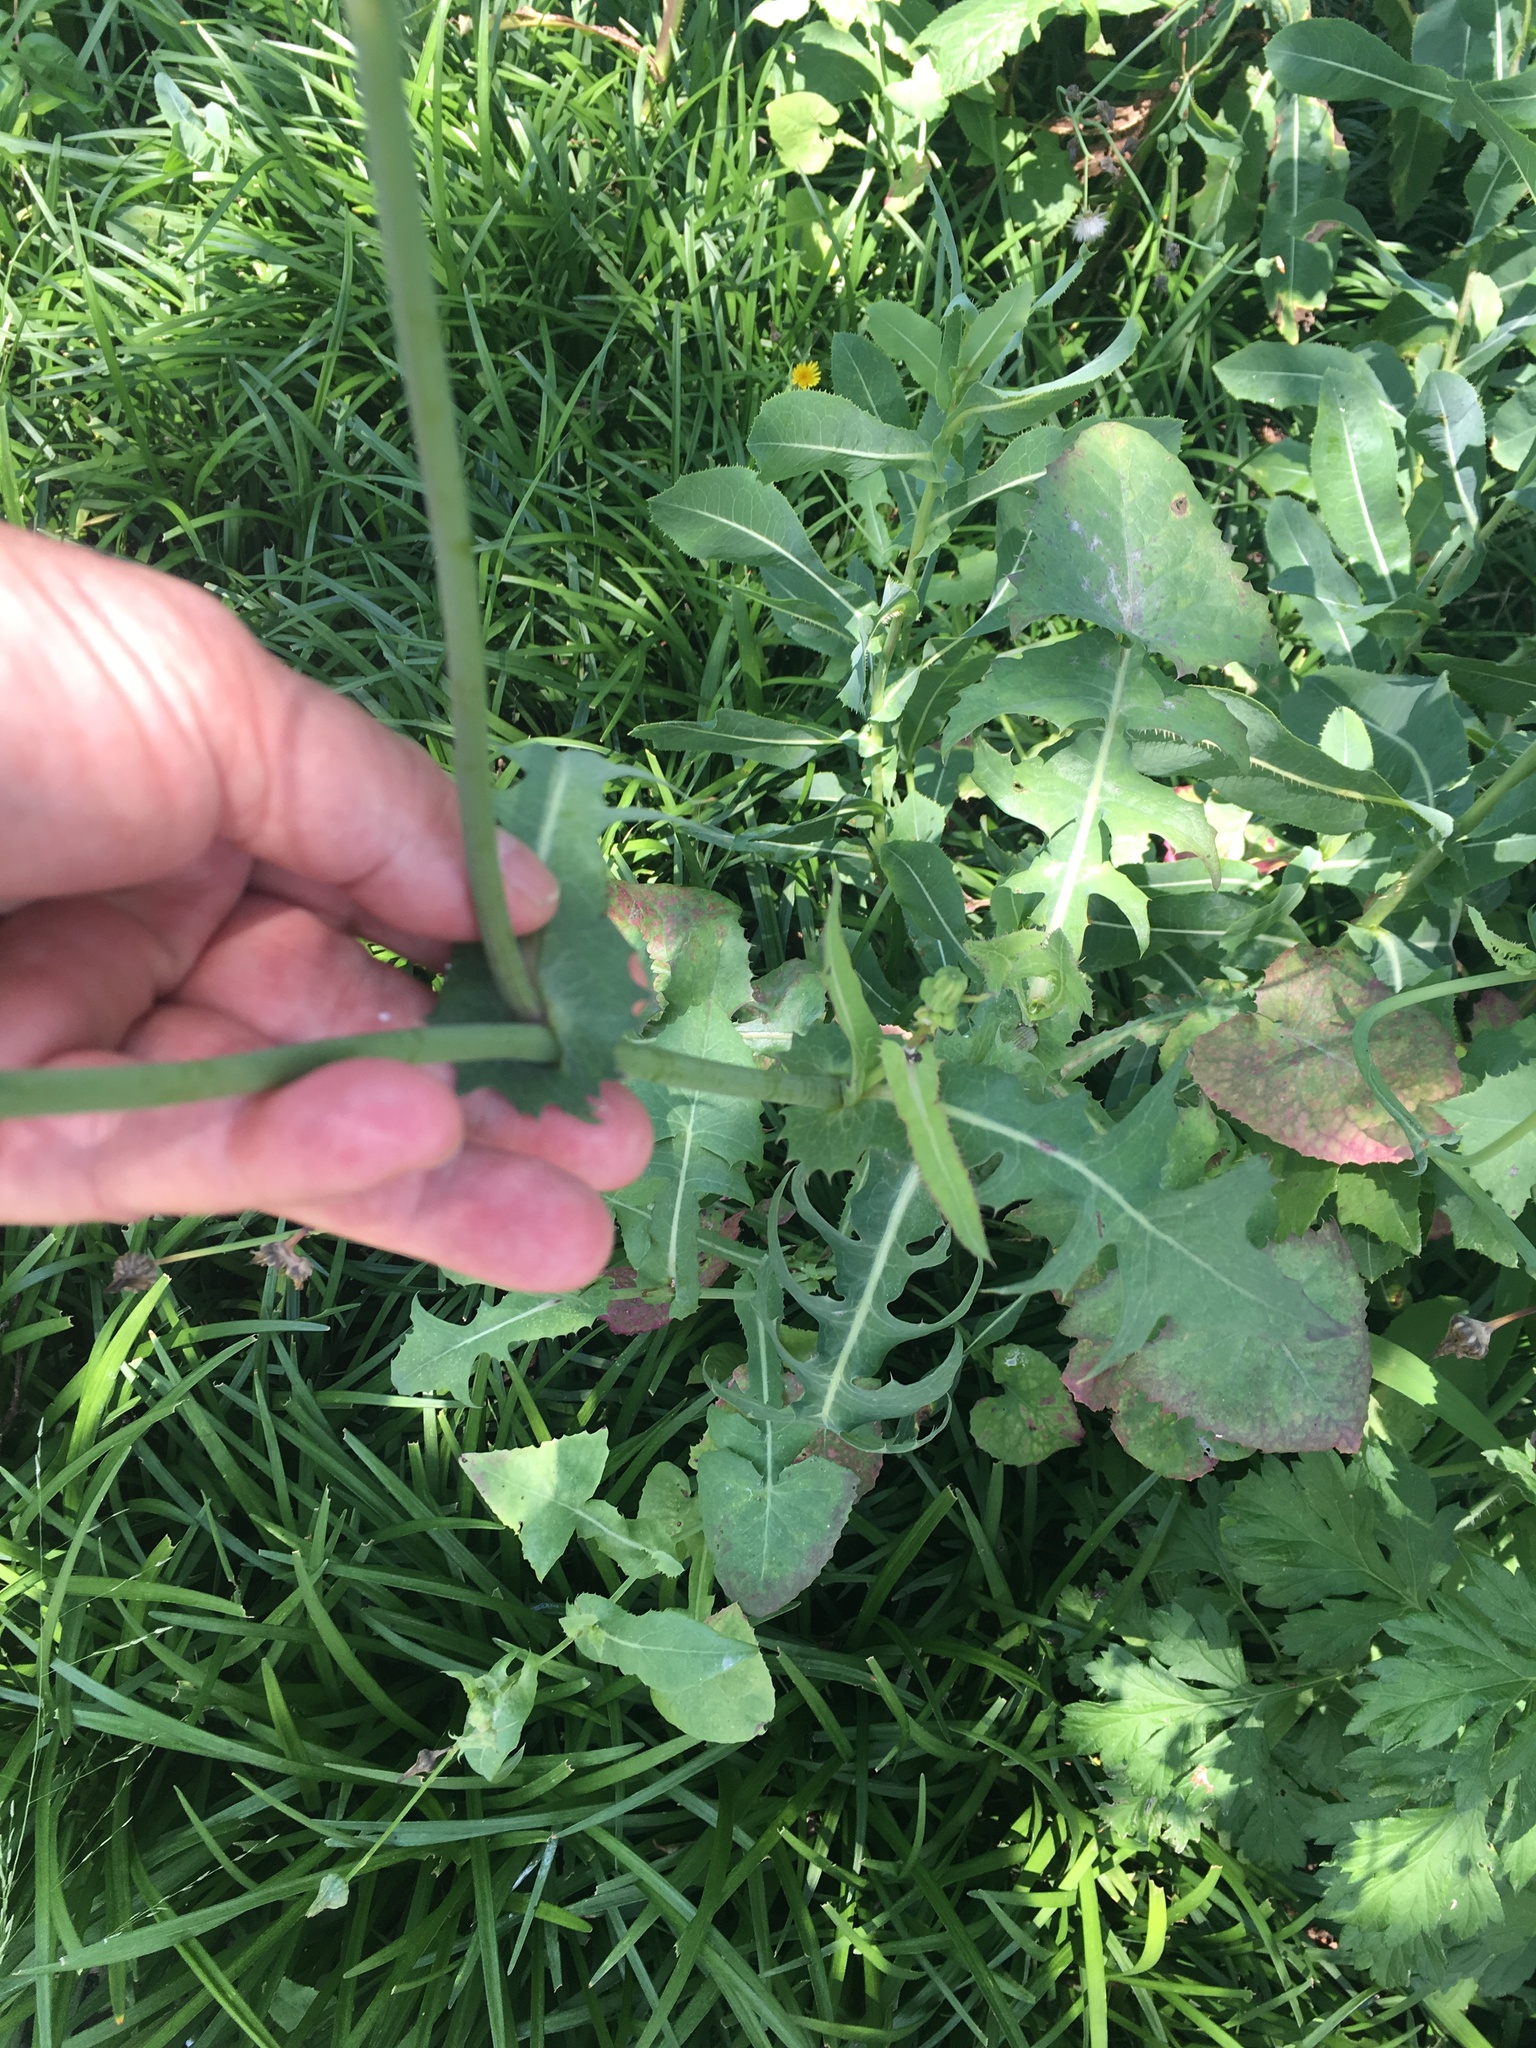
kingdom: Plantae
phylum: Tracheophyta
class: Magnoliopsida
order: Asterales
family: Asteraceae
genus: Sonchus
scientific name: Sonchus oleraceus
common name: Common sowthistle
